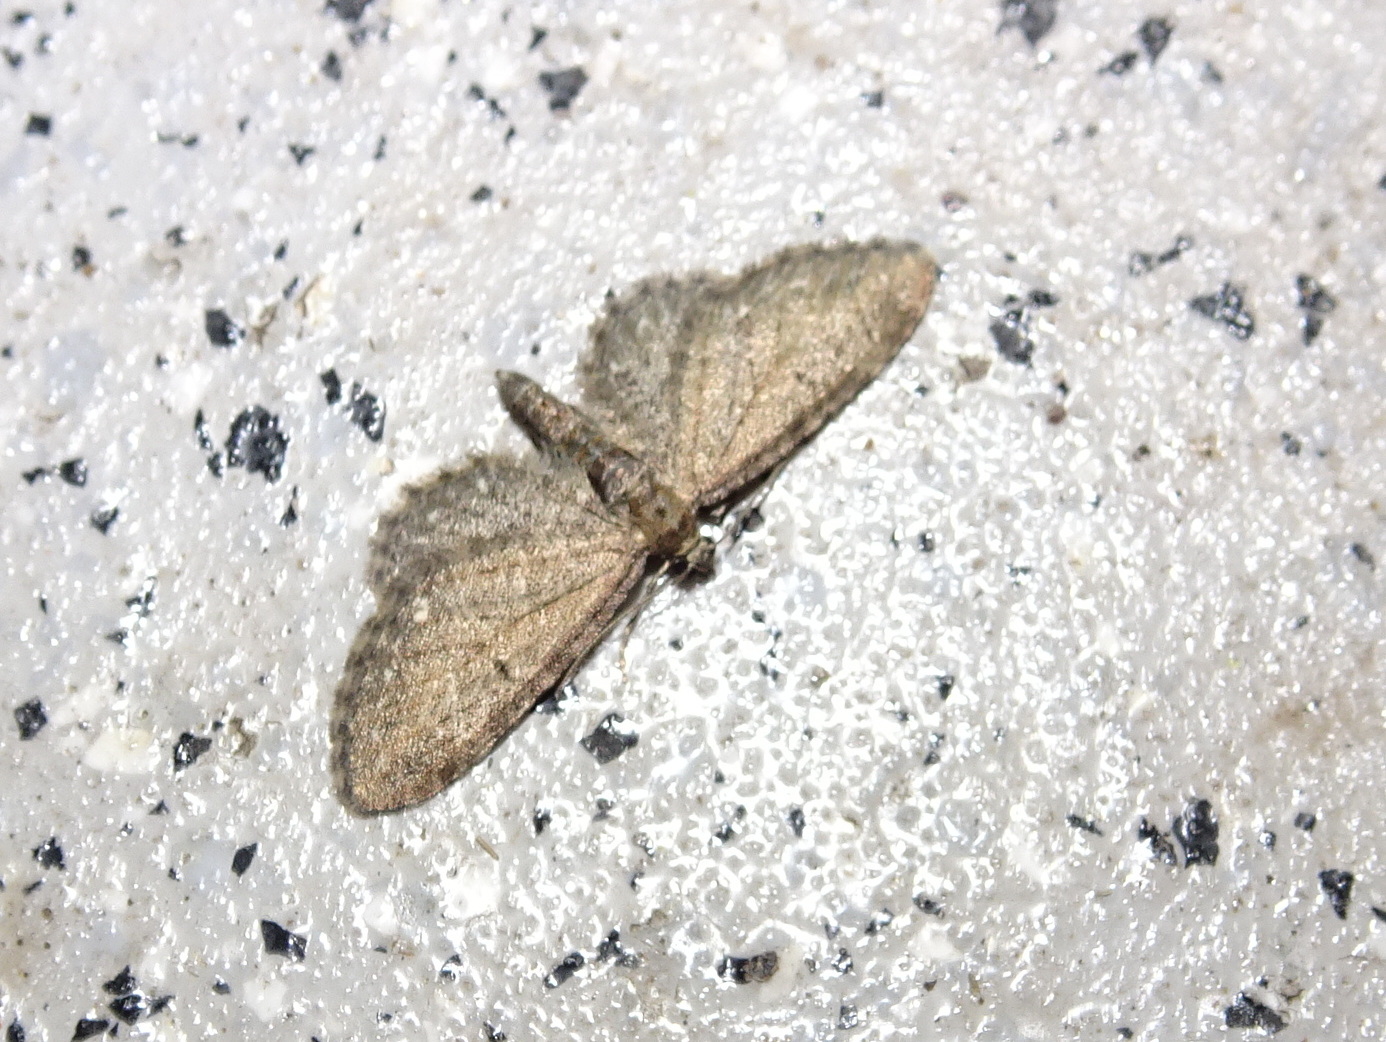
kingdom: Animalia
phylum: Arthropoda
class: Insecta
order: Lepidoptera
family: Geometridae
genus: Eupithecia
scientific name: Eupithecia vulgata
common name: Common pug
